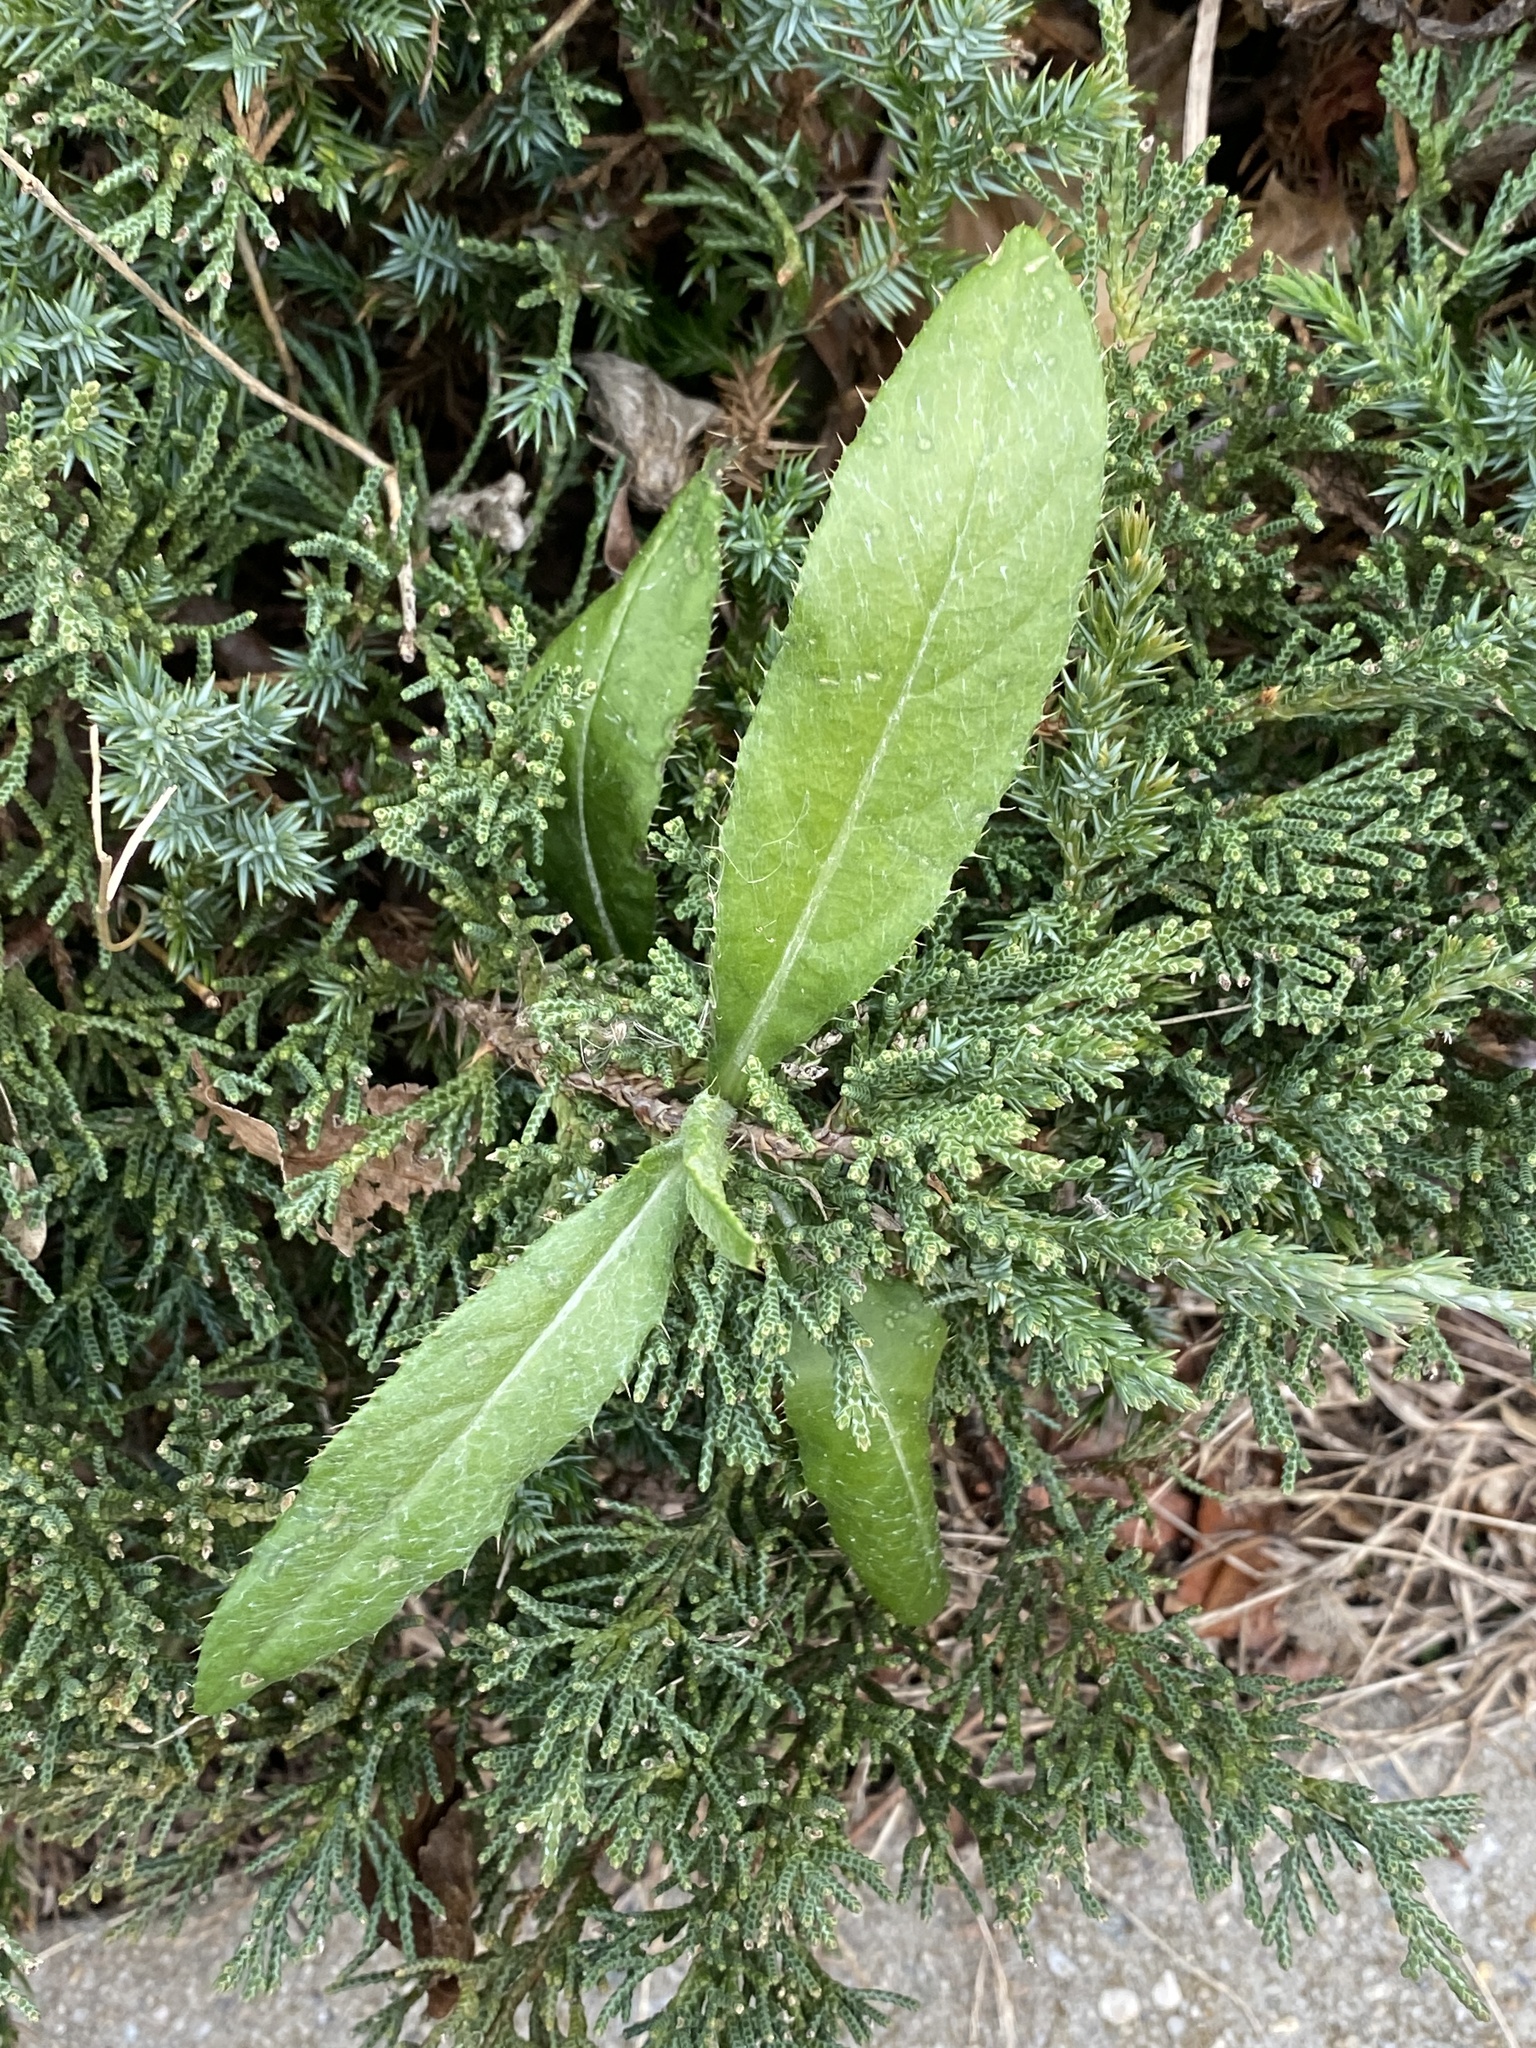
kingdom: Plantae
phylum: Tracheophyta
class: Magnoliopsida
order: Asterales
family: Asteraceae
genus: Cirsium
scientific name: Cirsium arvense
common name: Creeping thistle
